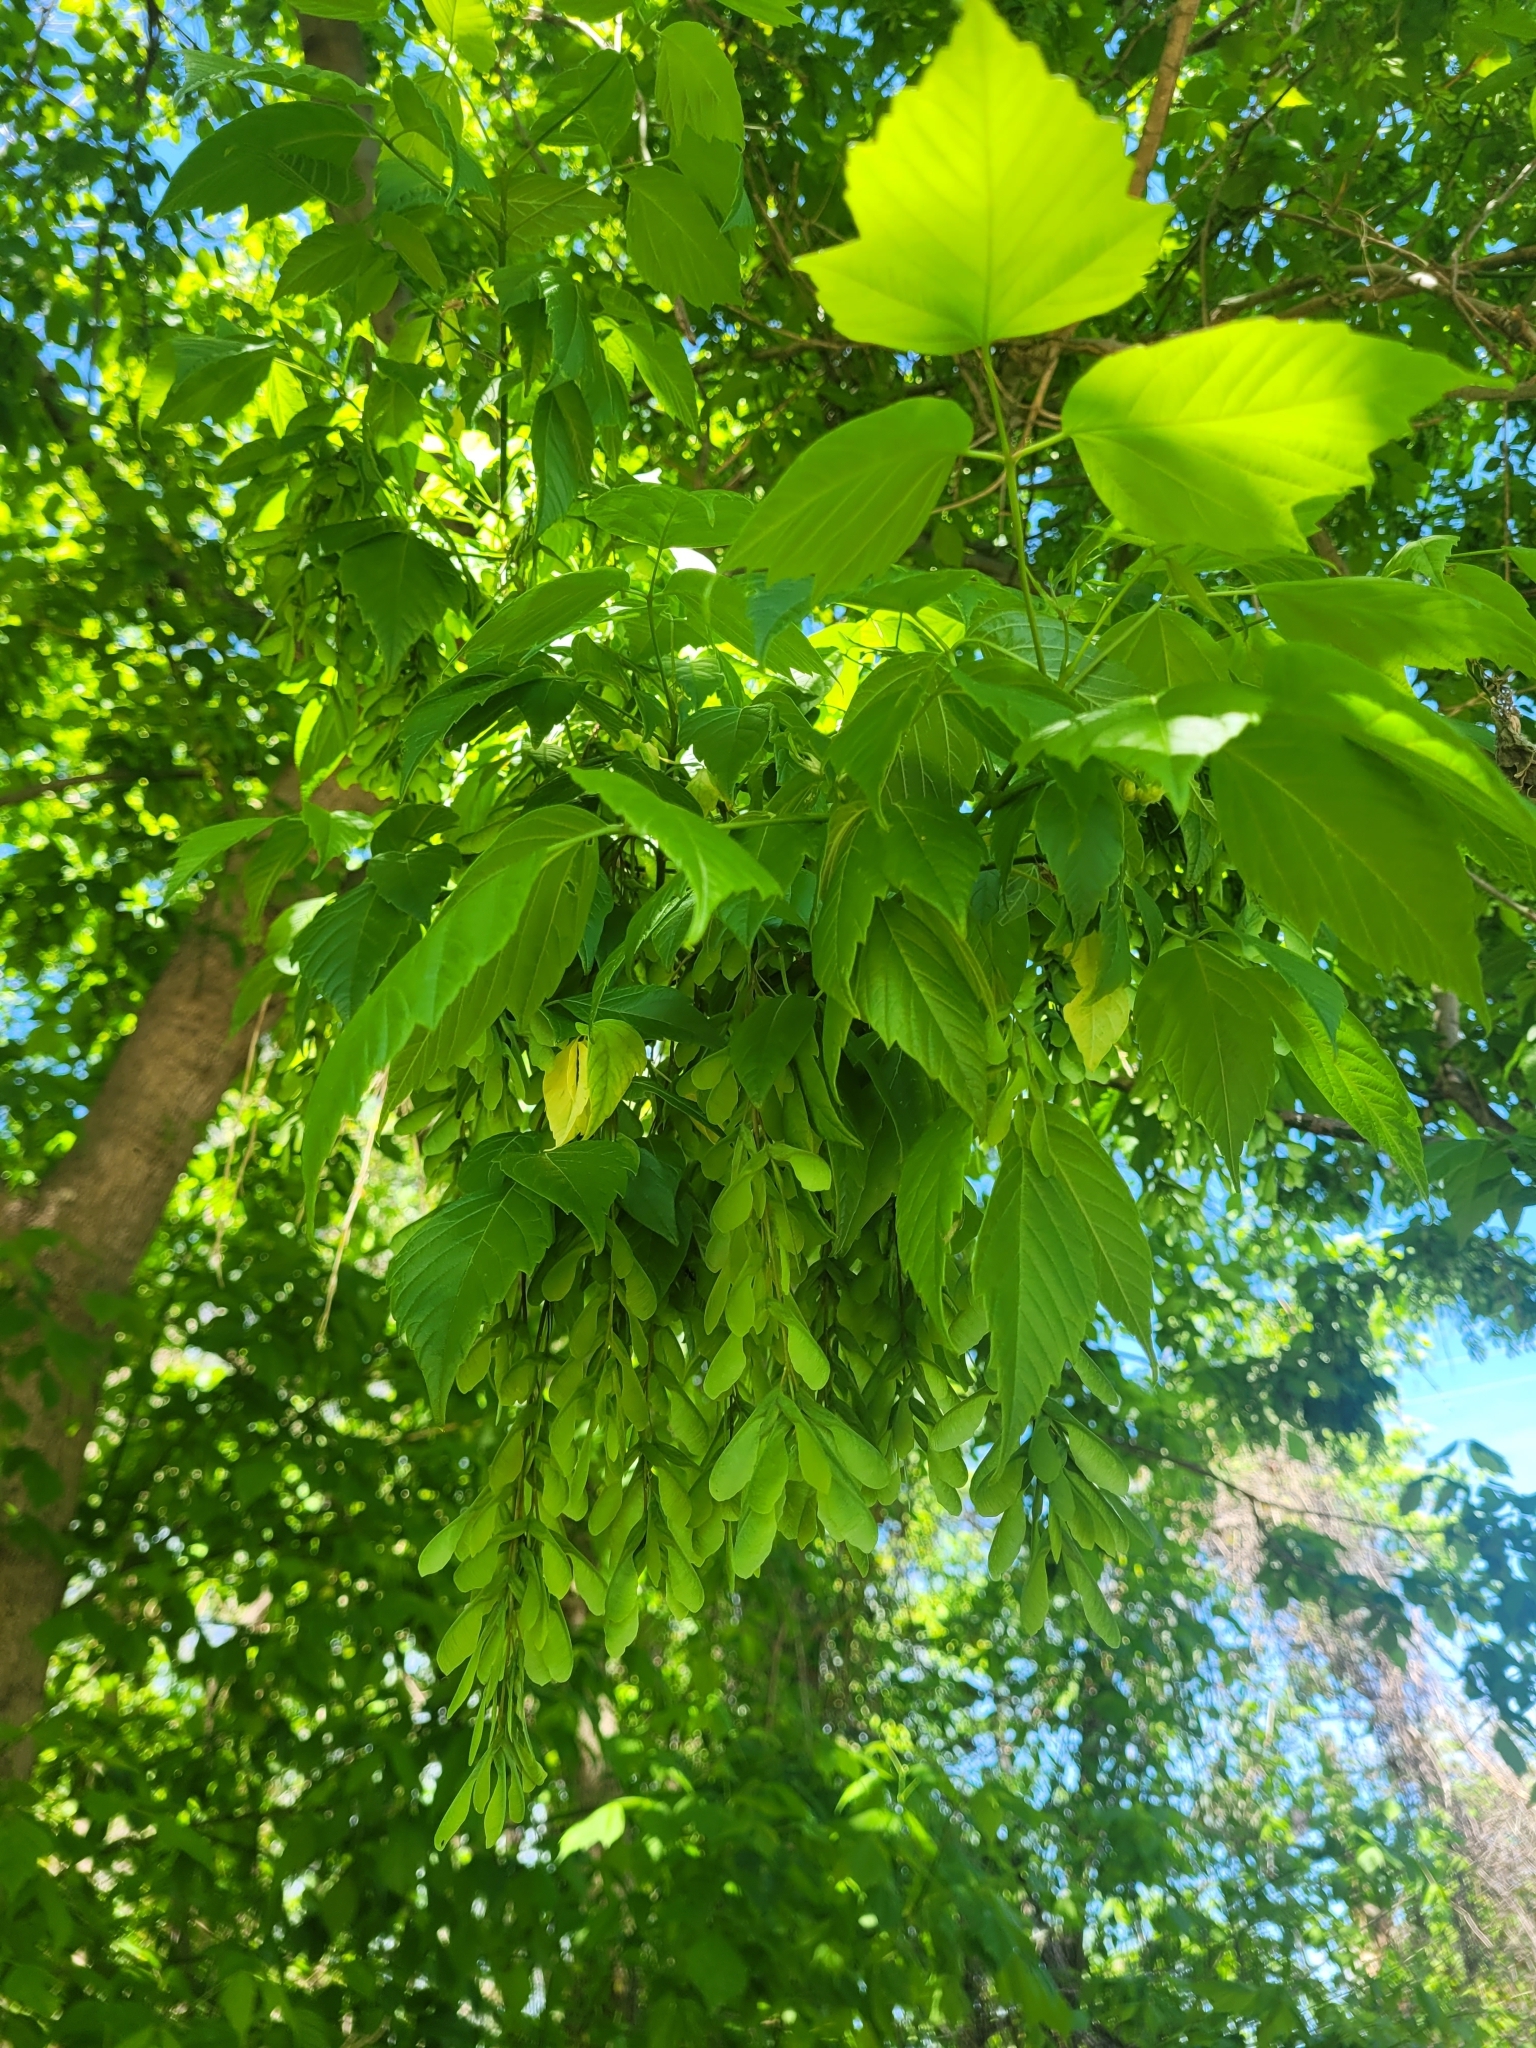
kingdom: Plantae
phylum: Tracheophyta
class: Magnoliopsida
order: Sapindales
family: Sapindaceae
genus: Acer
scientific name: Acer negundo
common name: Ashleaf maple
